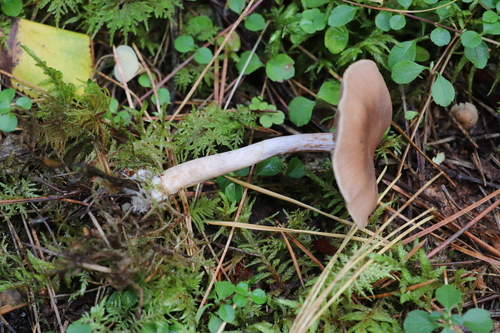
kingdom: Fungi
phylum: Basidiomycota
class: Agaricomycetes
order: Agaricales
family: Cortinariaceae
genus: Cortinarius
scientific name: Cortinarius
